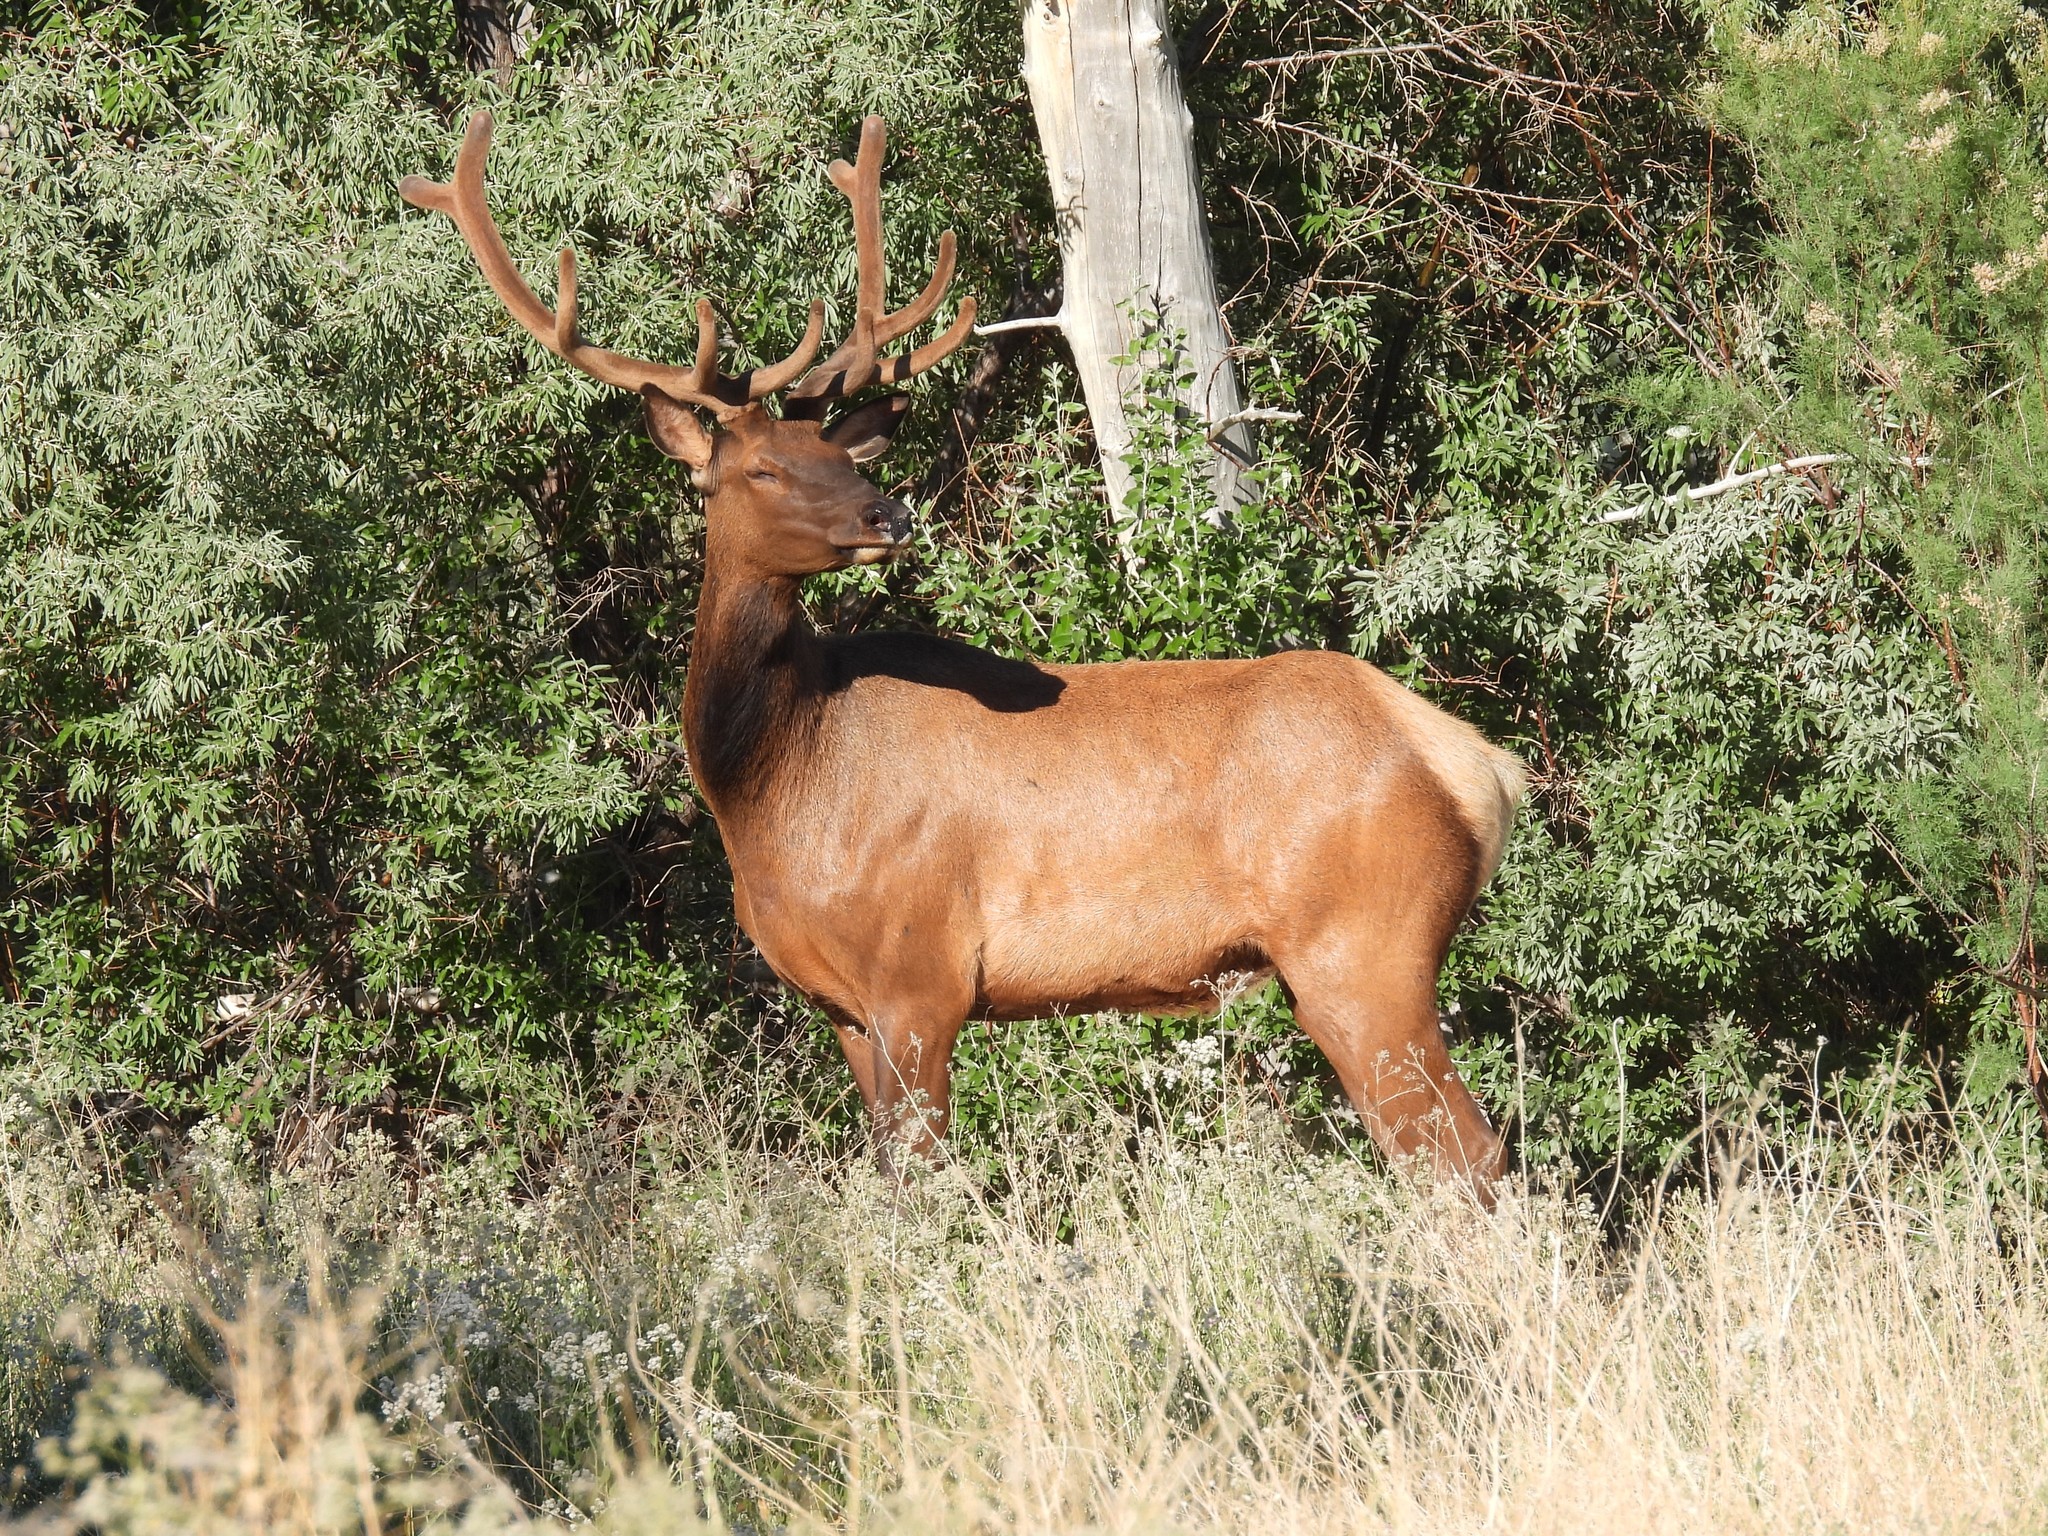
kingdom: Animalia
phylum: Chordata
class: Mammalia
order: Artiodactyla
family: Cervidae
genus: Cervus
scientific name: Cervus elaphus
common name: Red deer
